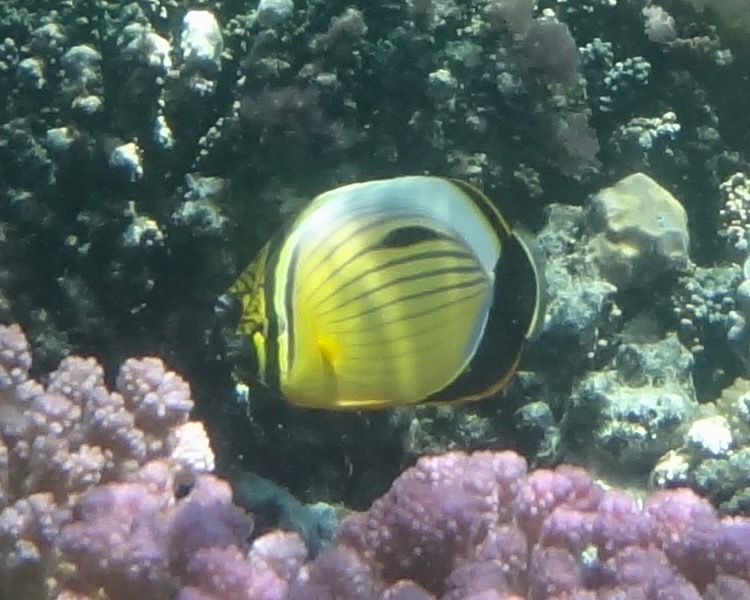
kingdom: Animalia
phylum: Chordata
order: Perciformes
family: Chaetodontidae
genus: Chaetodon
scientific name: Chaetodon austriacus
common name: Exquisite butterflyfish
